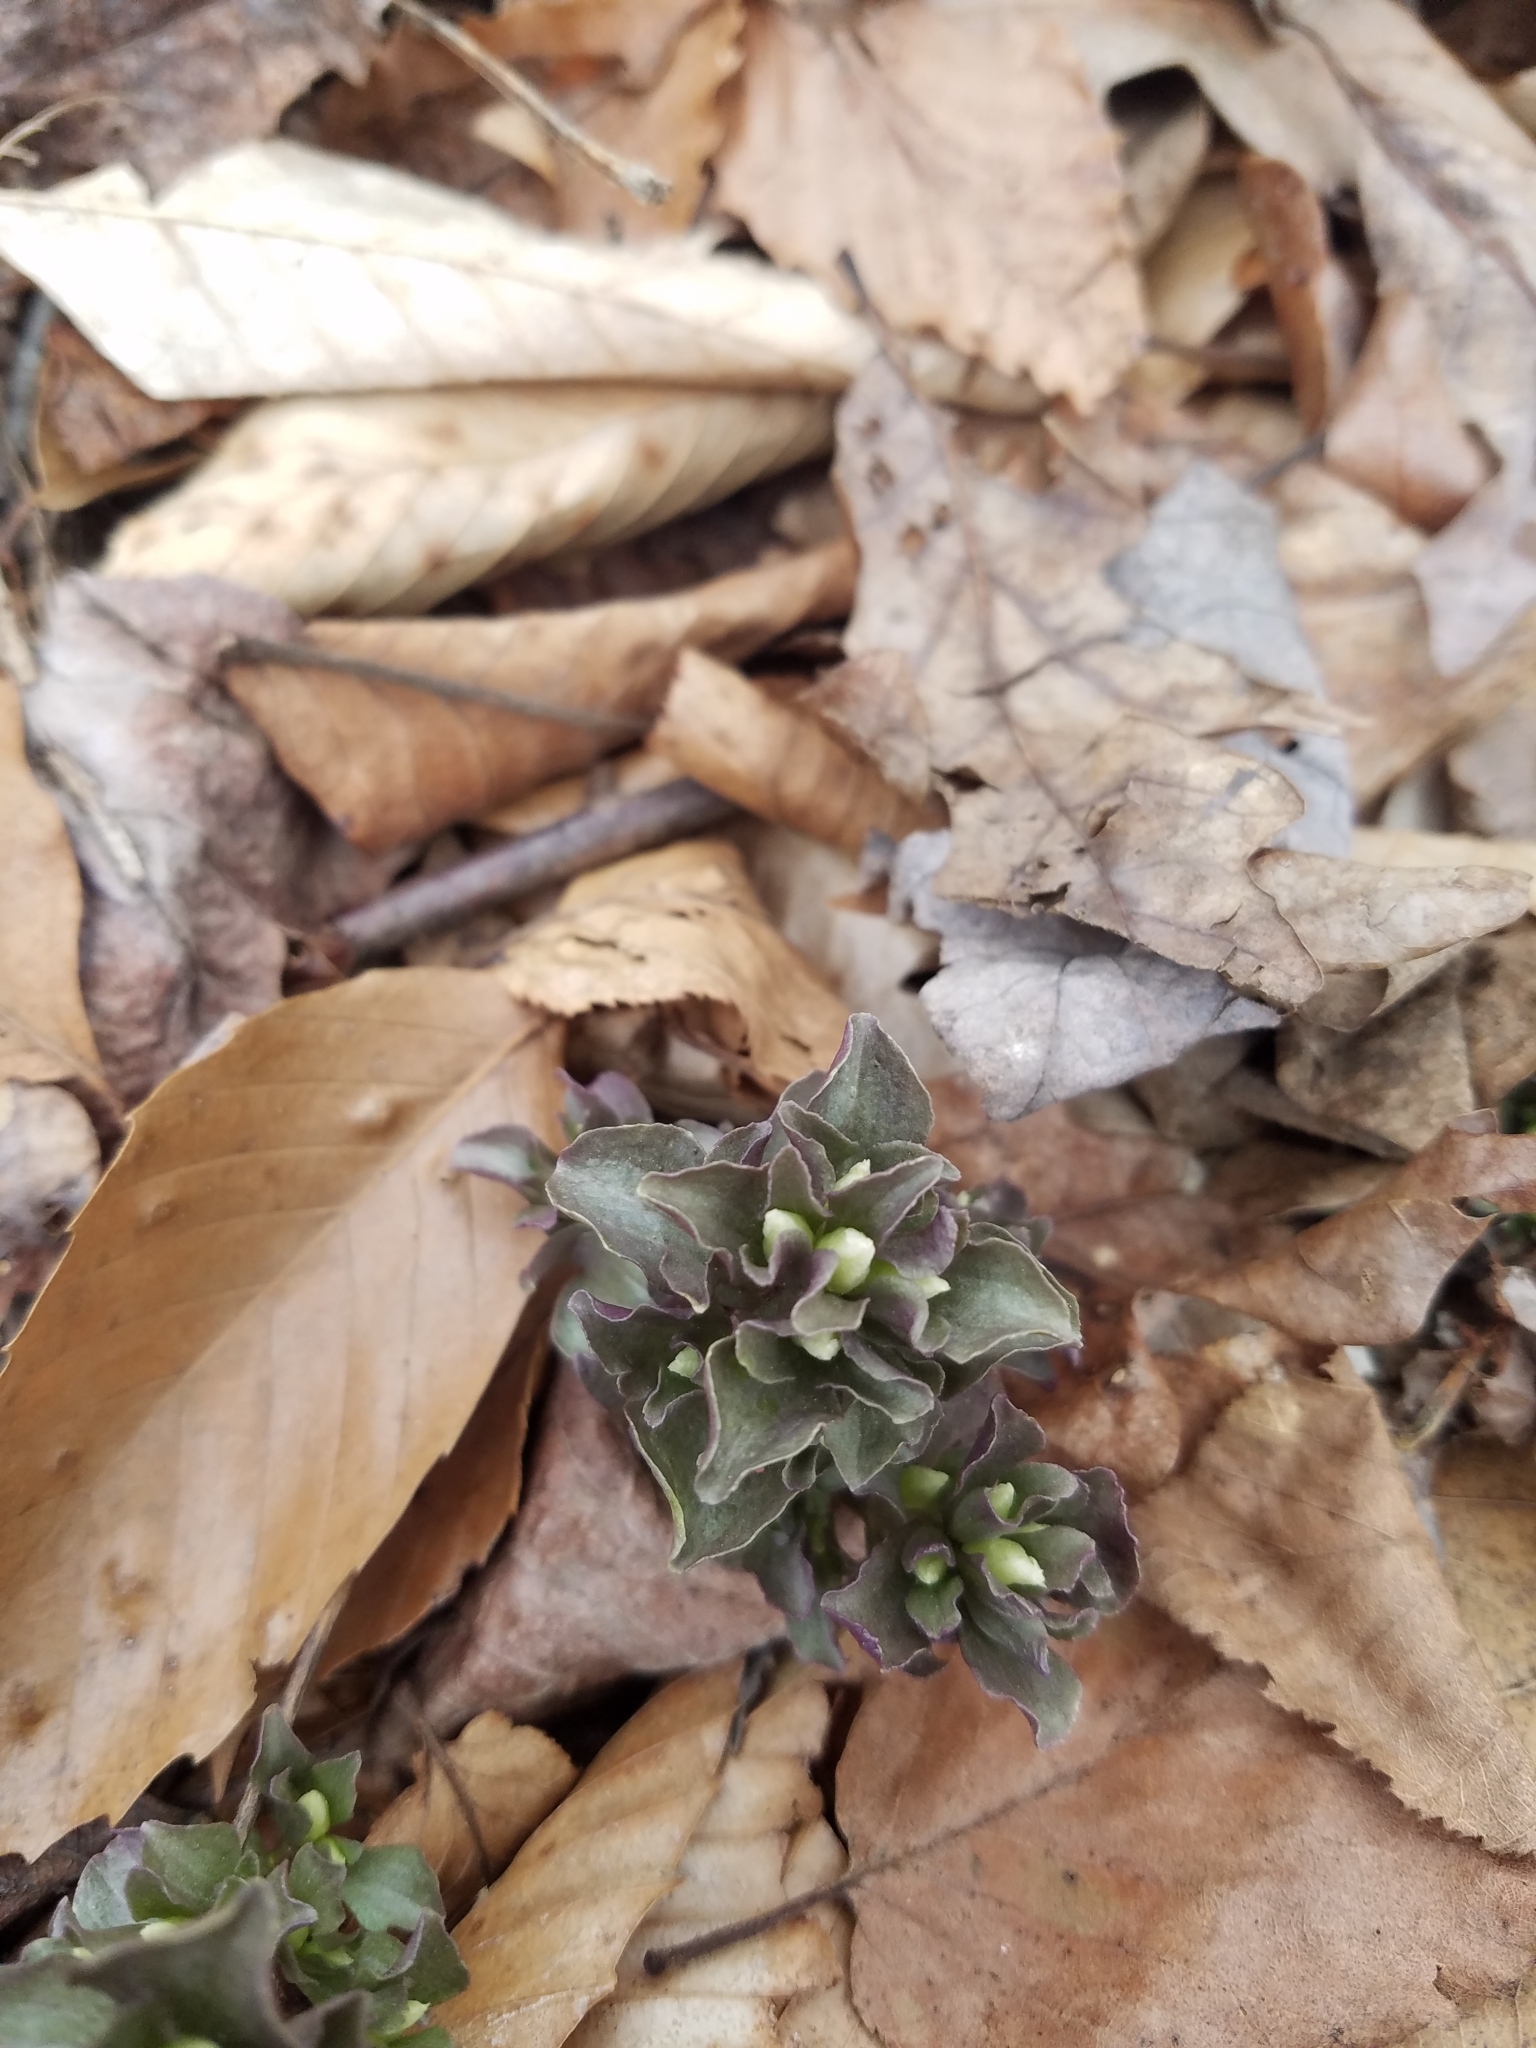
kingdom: Plantae
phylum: Tracheophyta
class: Magnoliopsida
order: Gentianales
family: Gentianaceae
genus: Obolaria
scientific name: Obolaria virginica
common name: Pennywort
